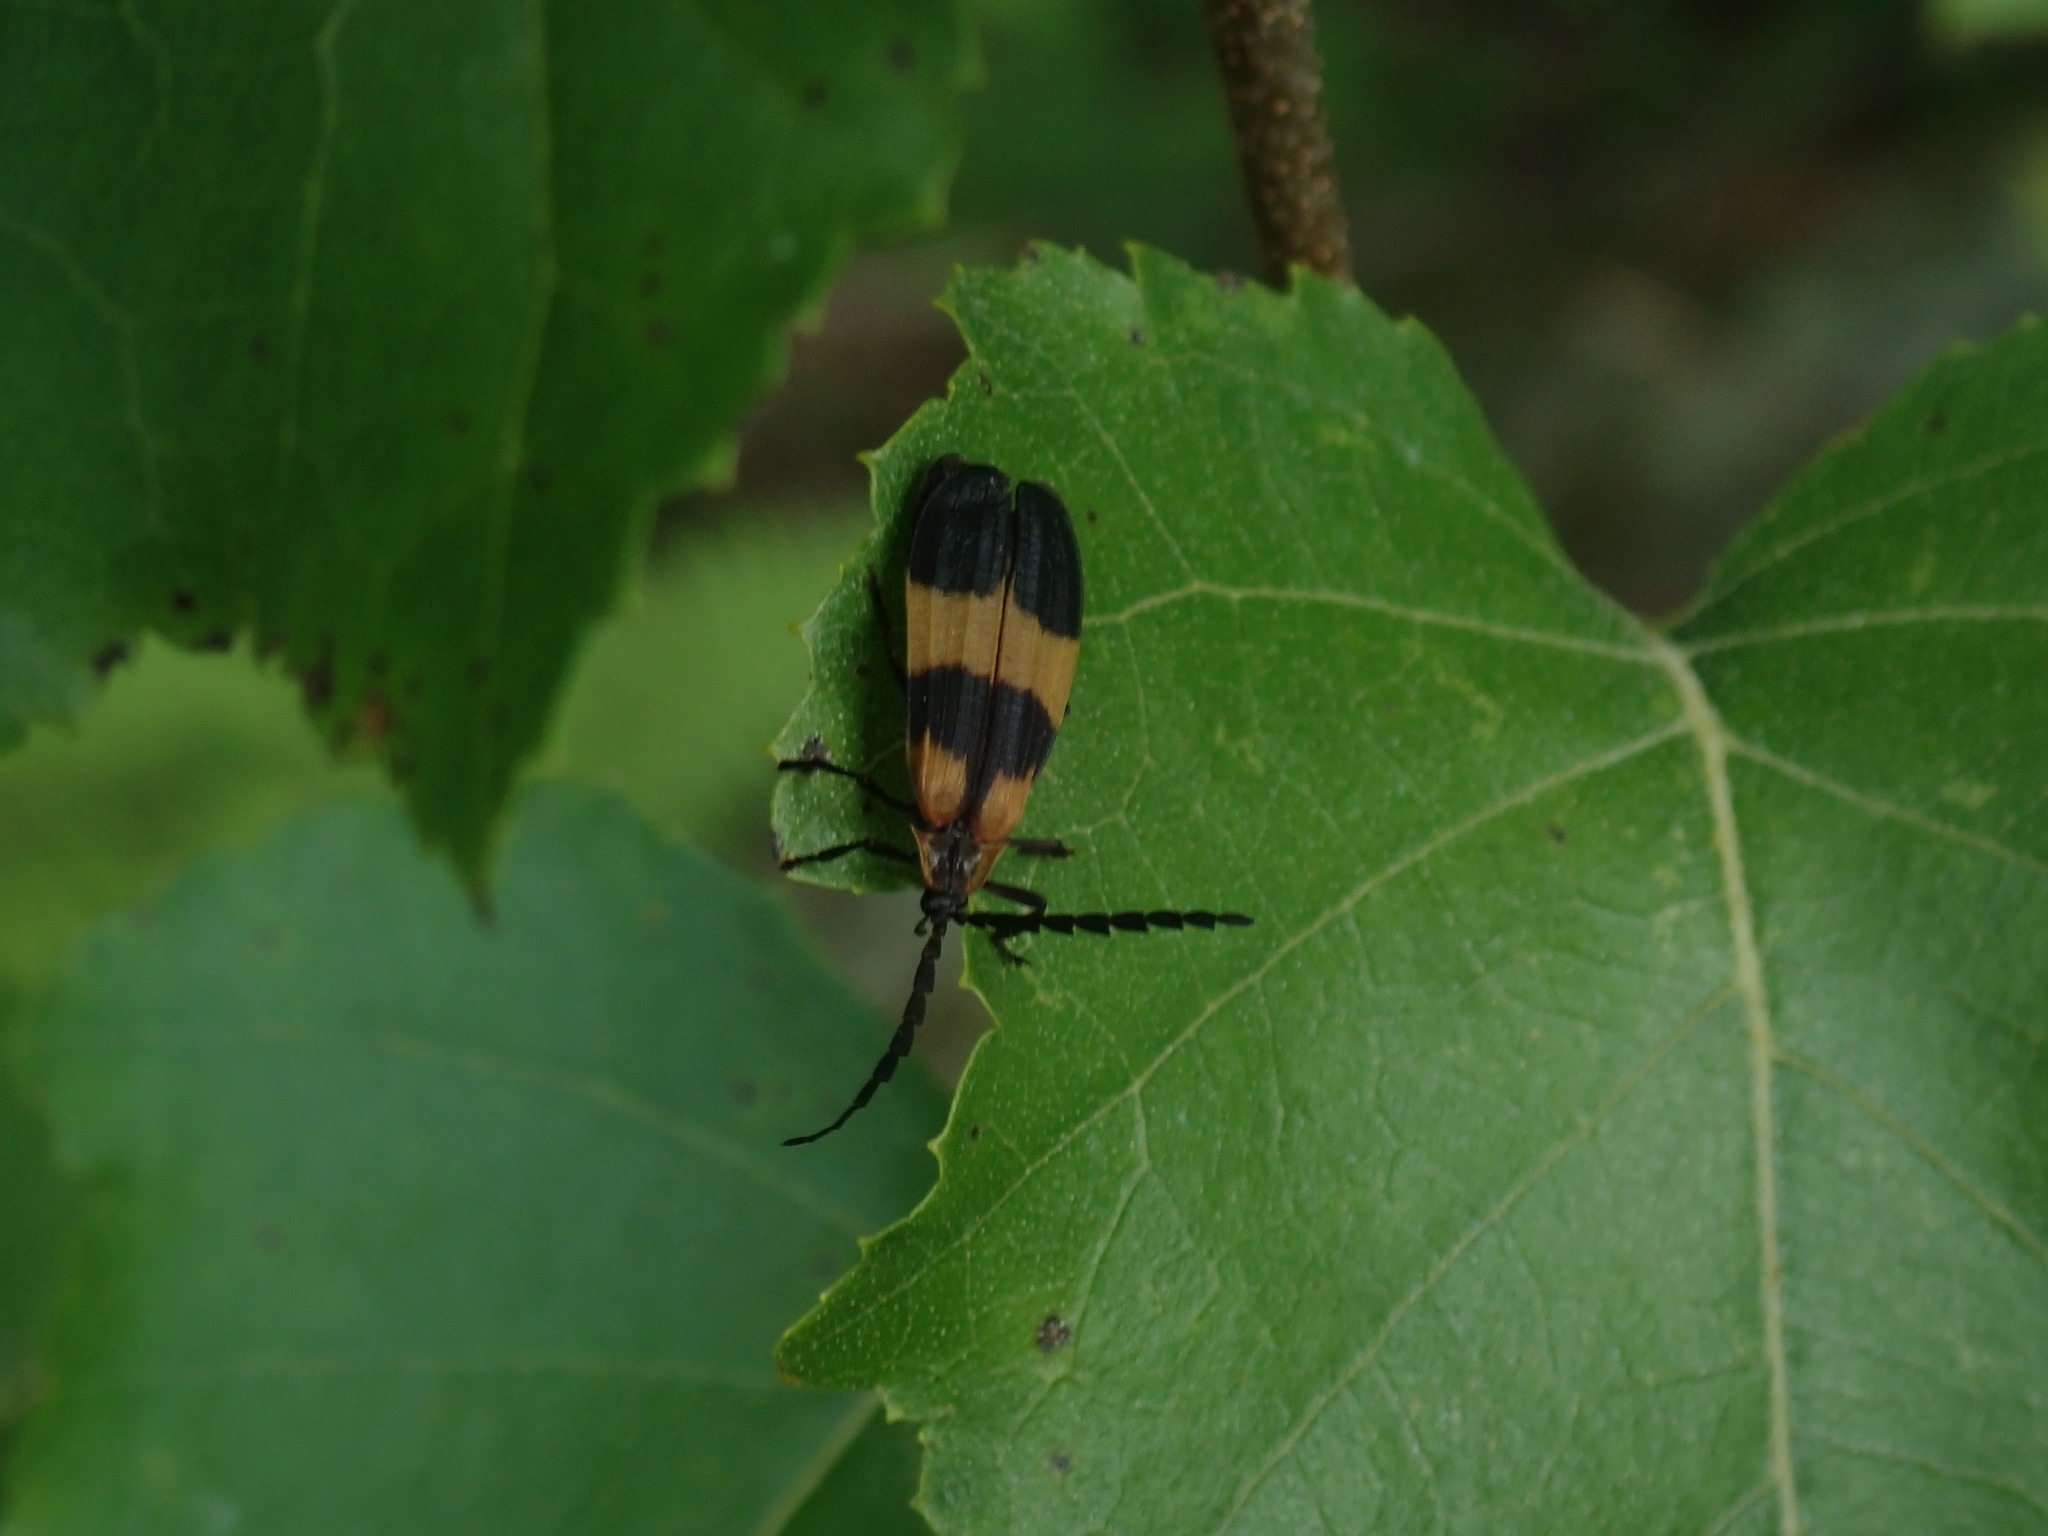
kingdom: Animalia
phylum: Arthropoda
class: Insecta
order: Coleoptera
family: Lycidae
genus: Calopteron
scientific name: Calopteron reticulatum
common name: Banded net-winged beetle
